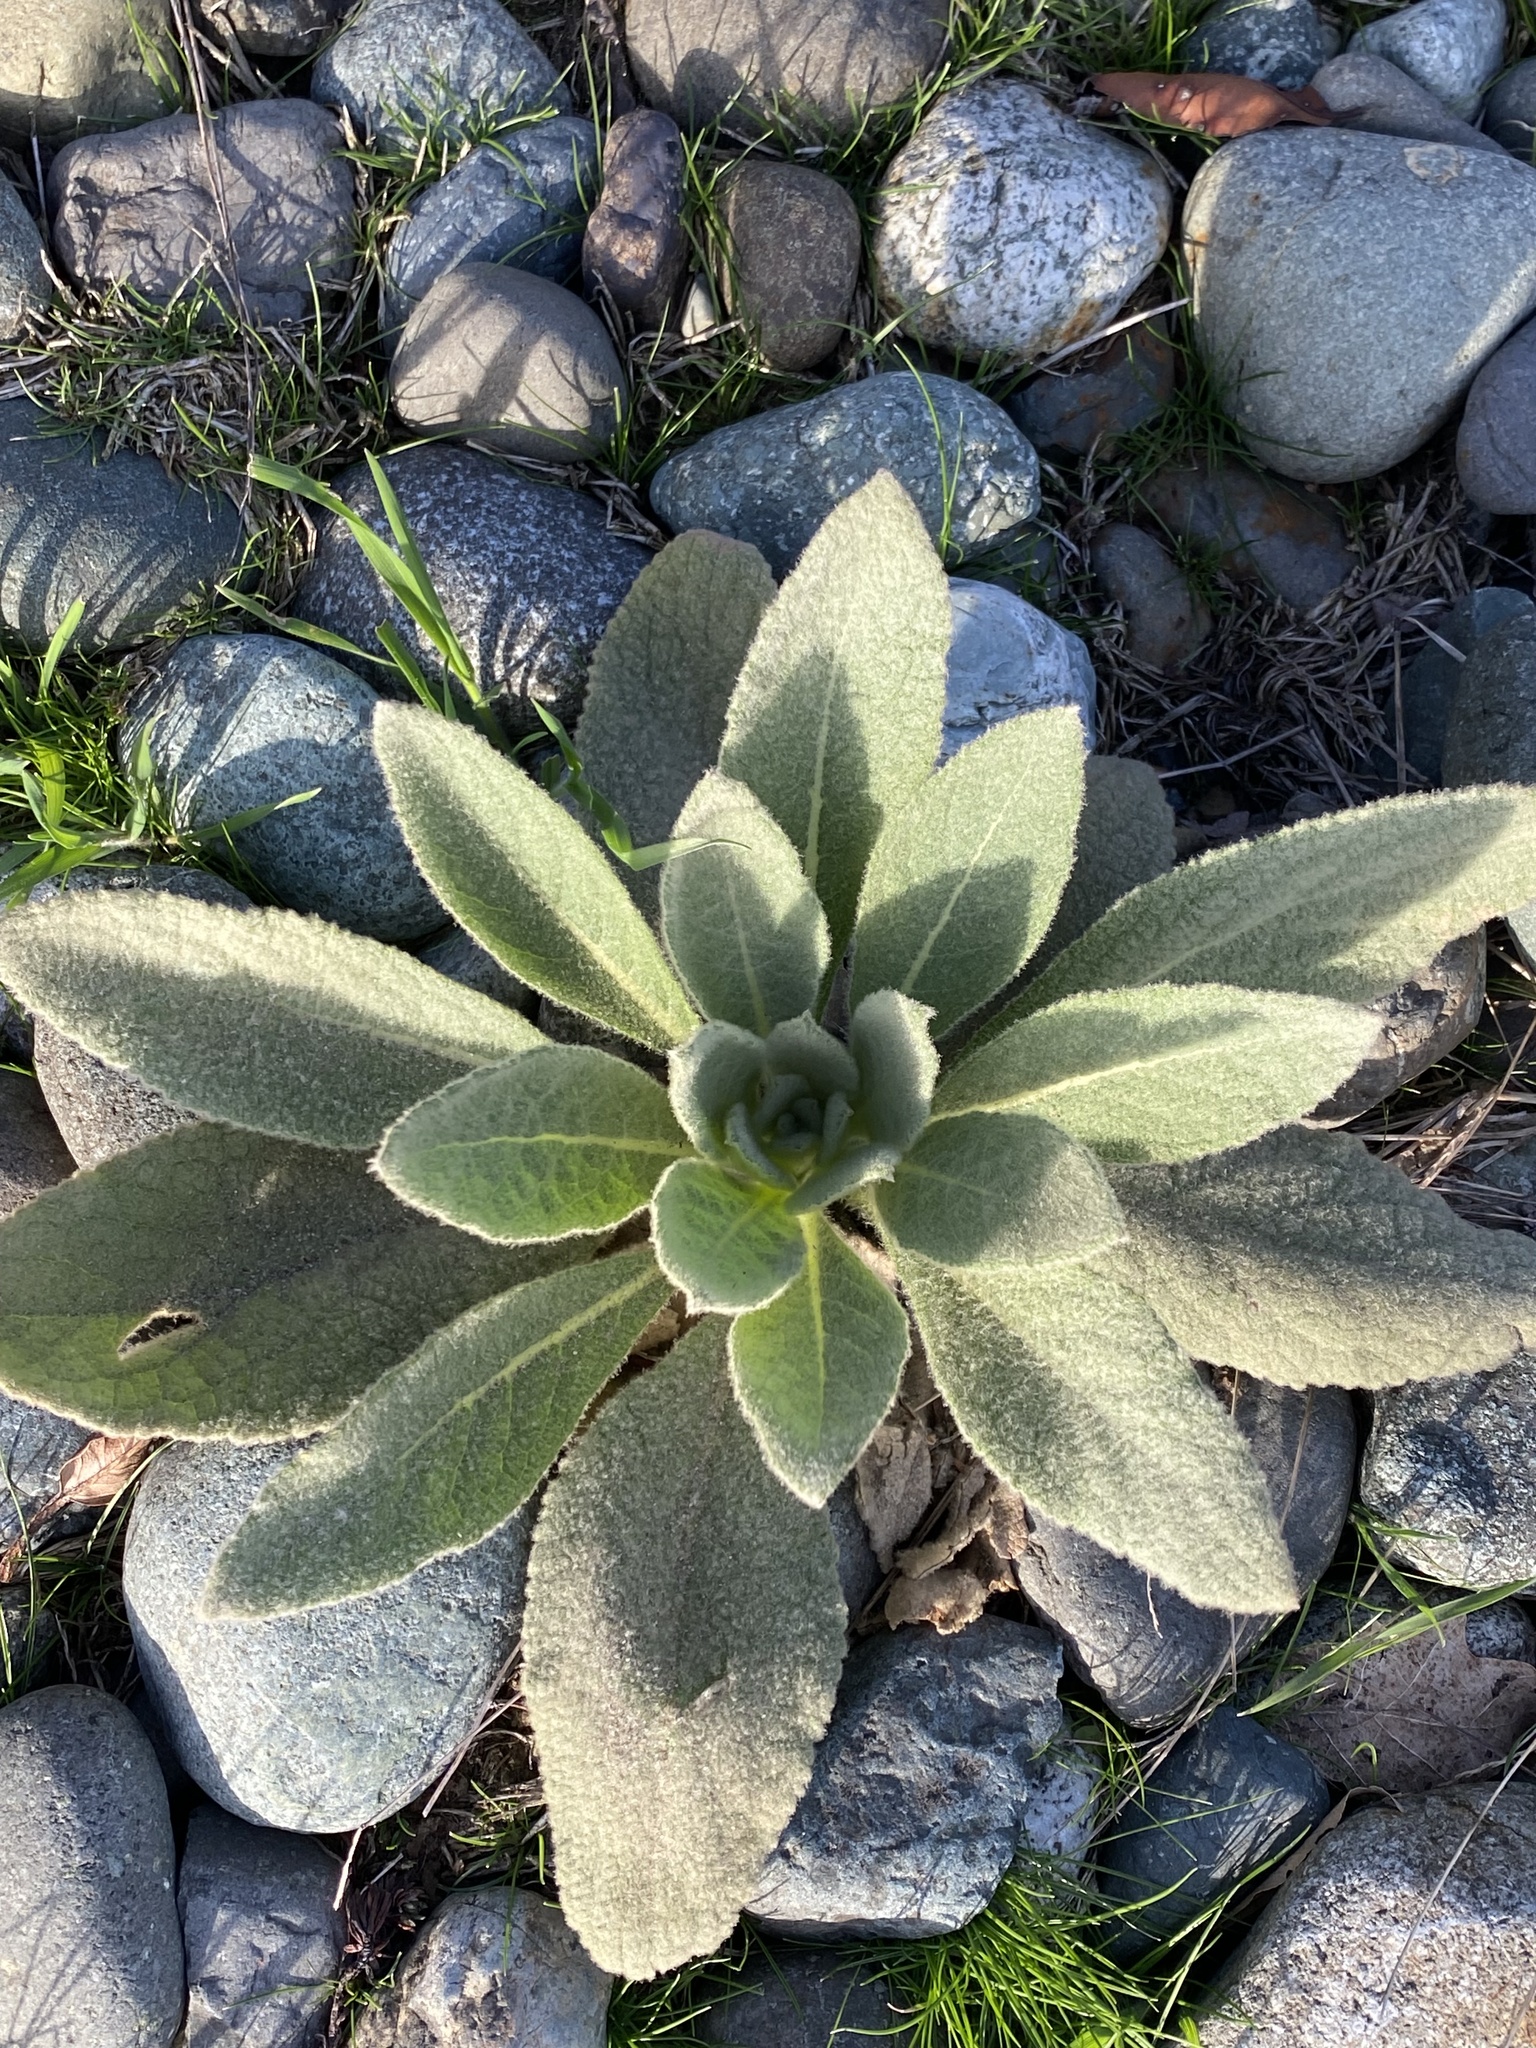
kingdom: Plantae
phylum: Tracheophyta
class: Magnoliopsida
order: Lamiales
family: Scrophulariaceae
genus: Verbascum
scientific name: Verbascum thapsus
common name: Common mullein
